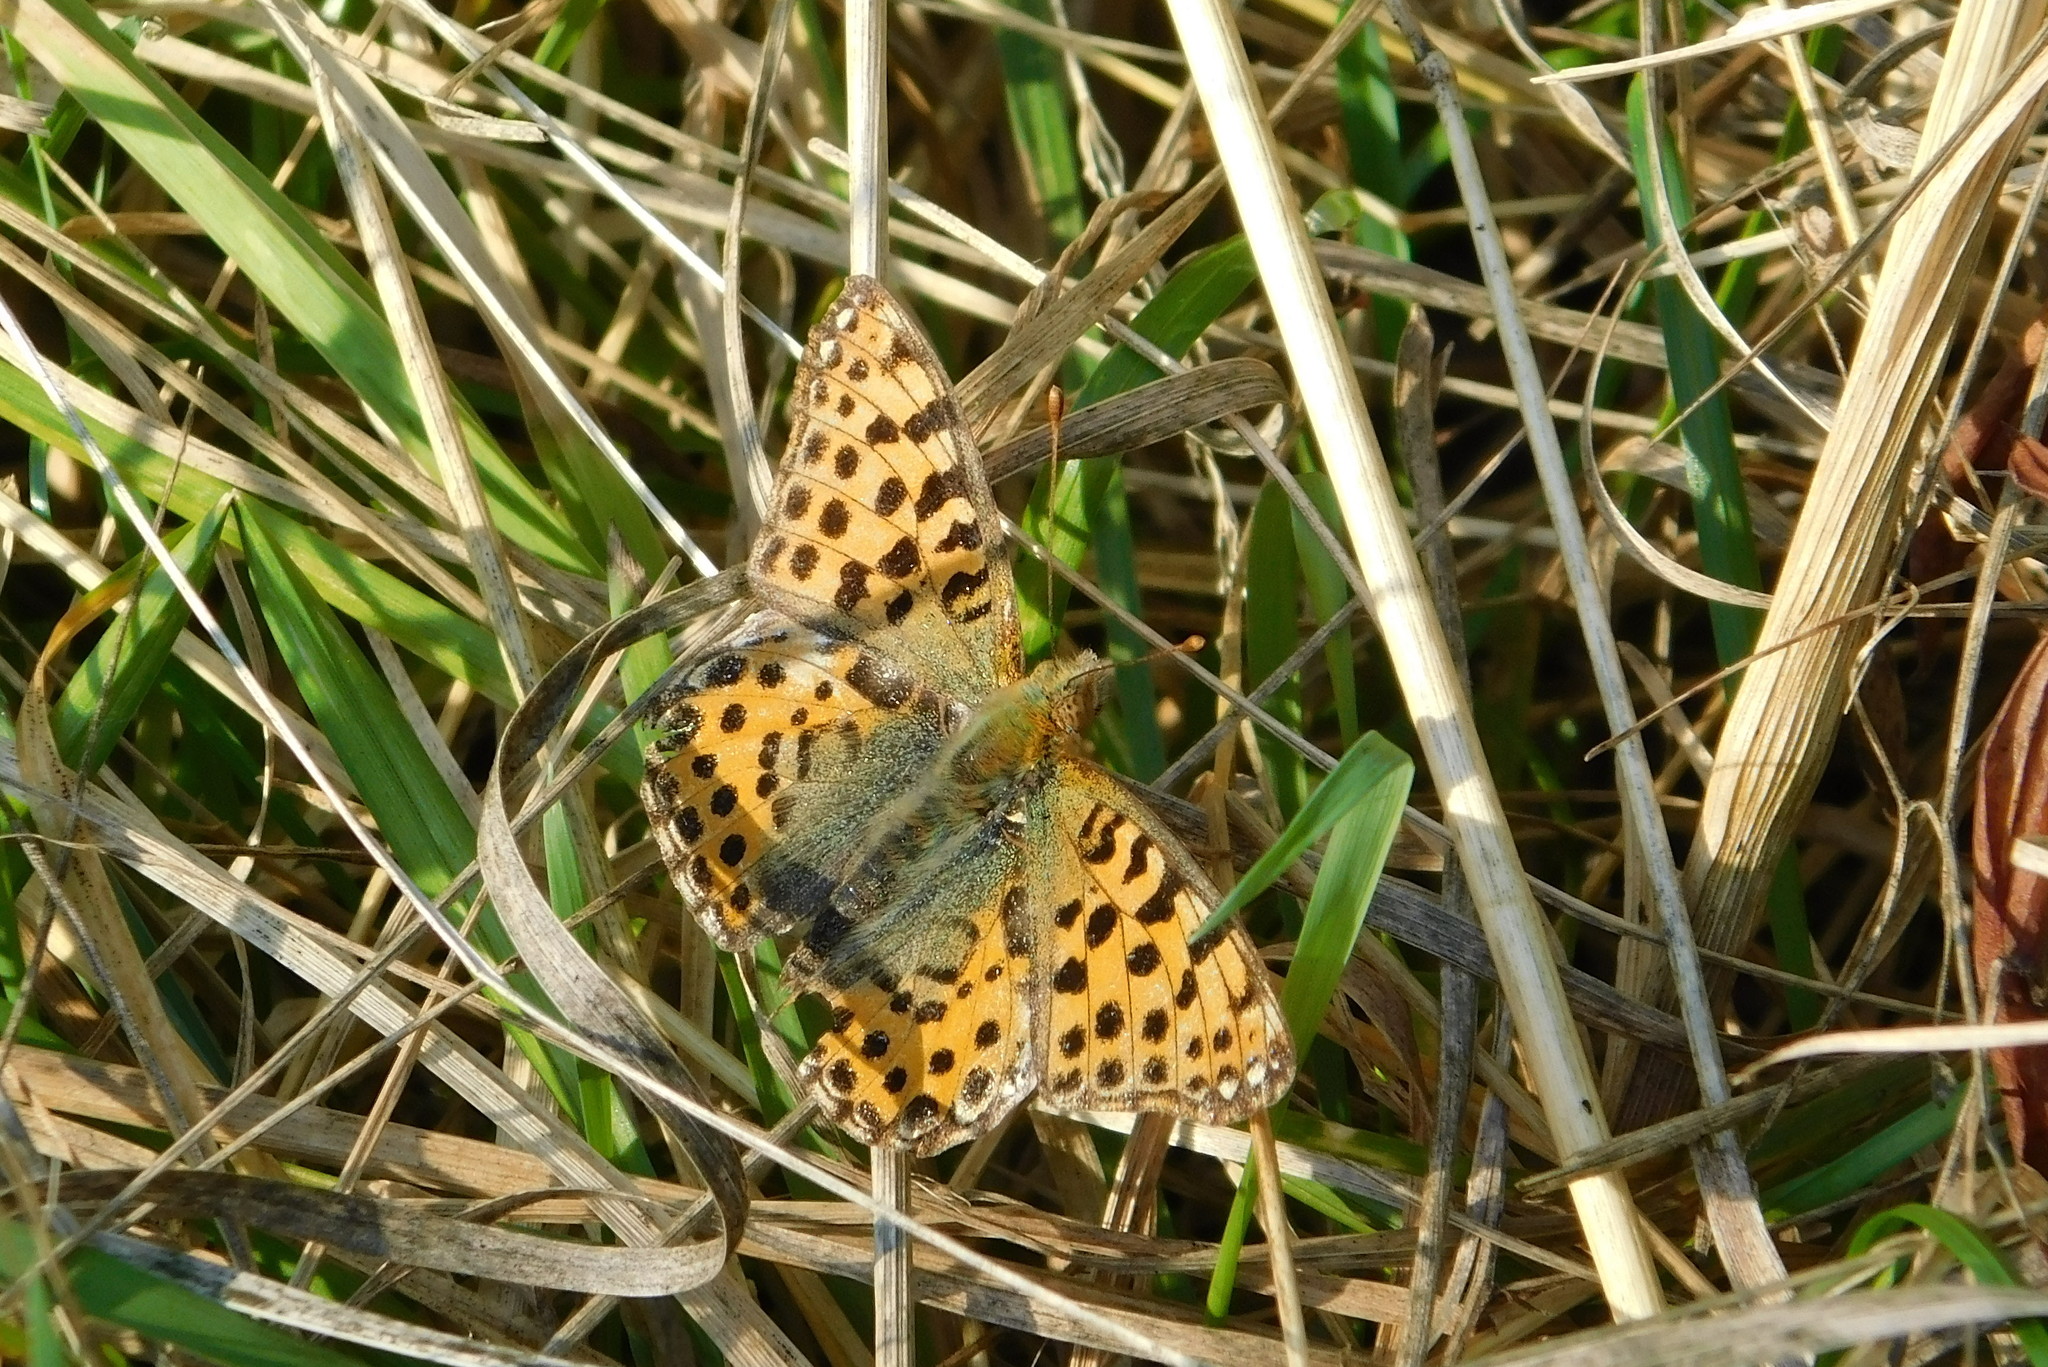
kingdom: Animalia
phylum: Arthropoda
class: Insecta
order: Lepidoptera
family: Nymphalidae
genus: Issoria
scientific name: Issoria lathonia
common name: Queen of spain fritillary
